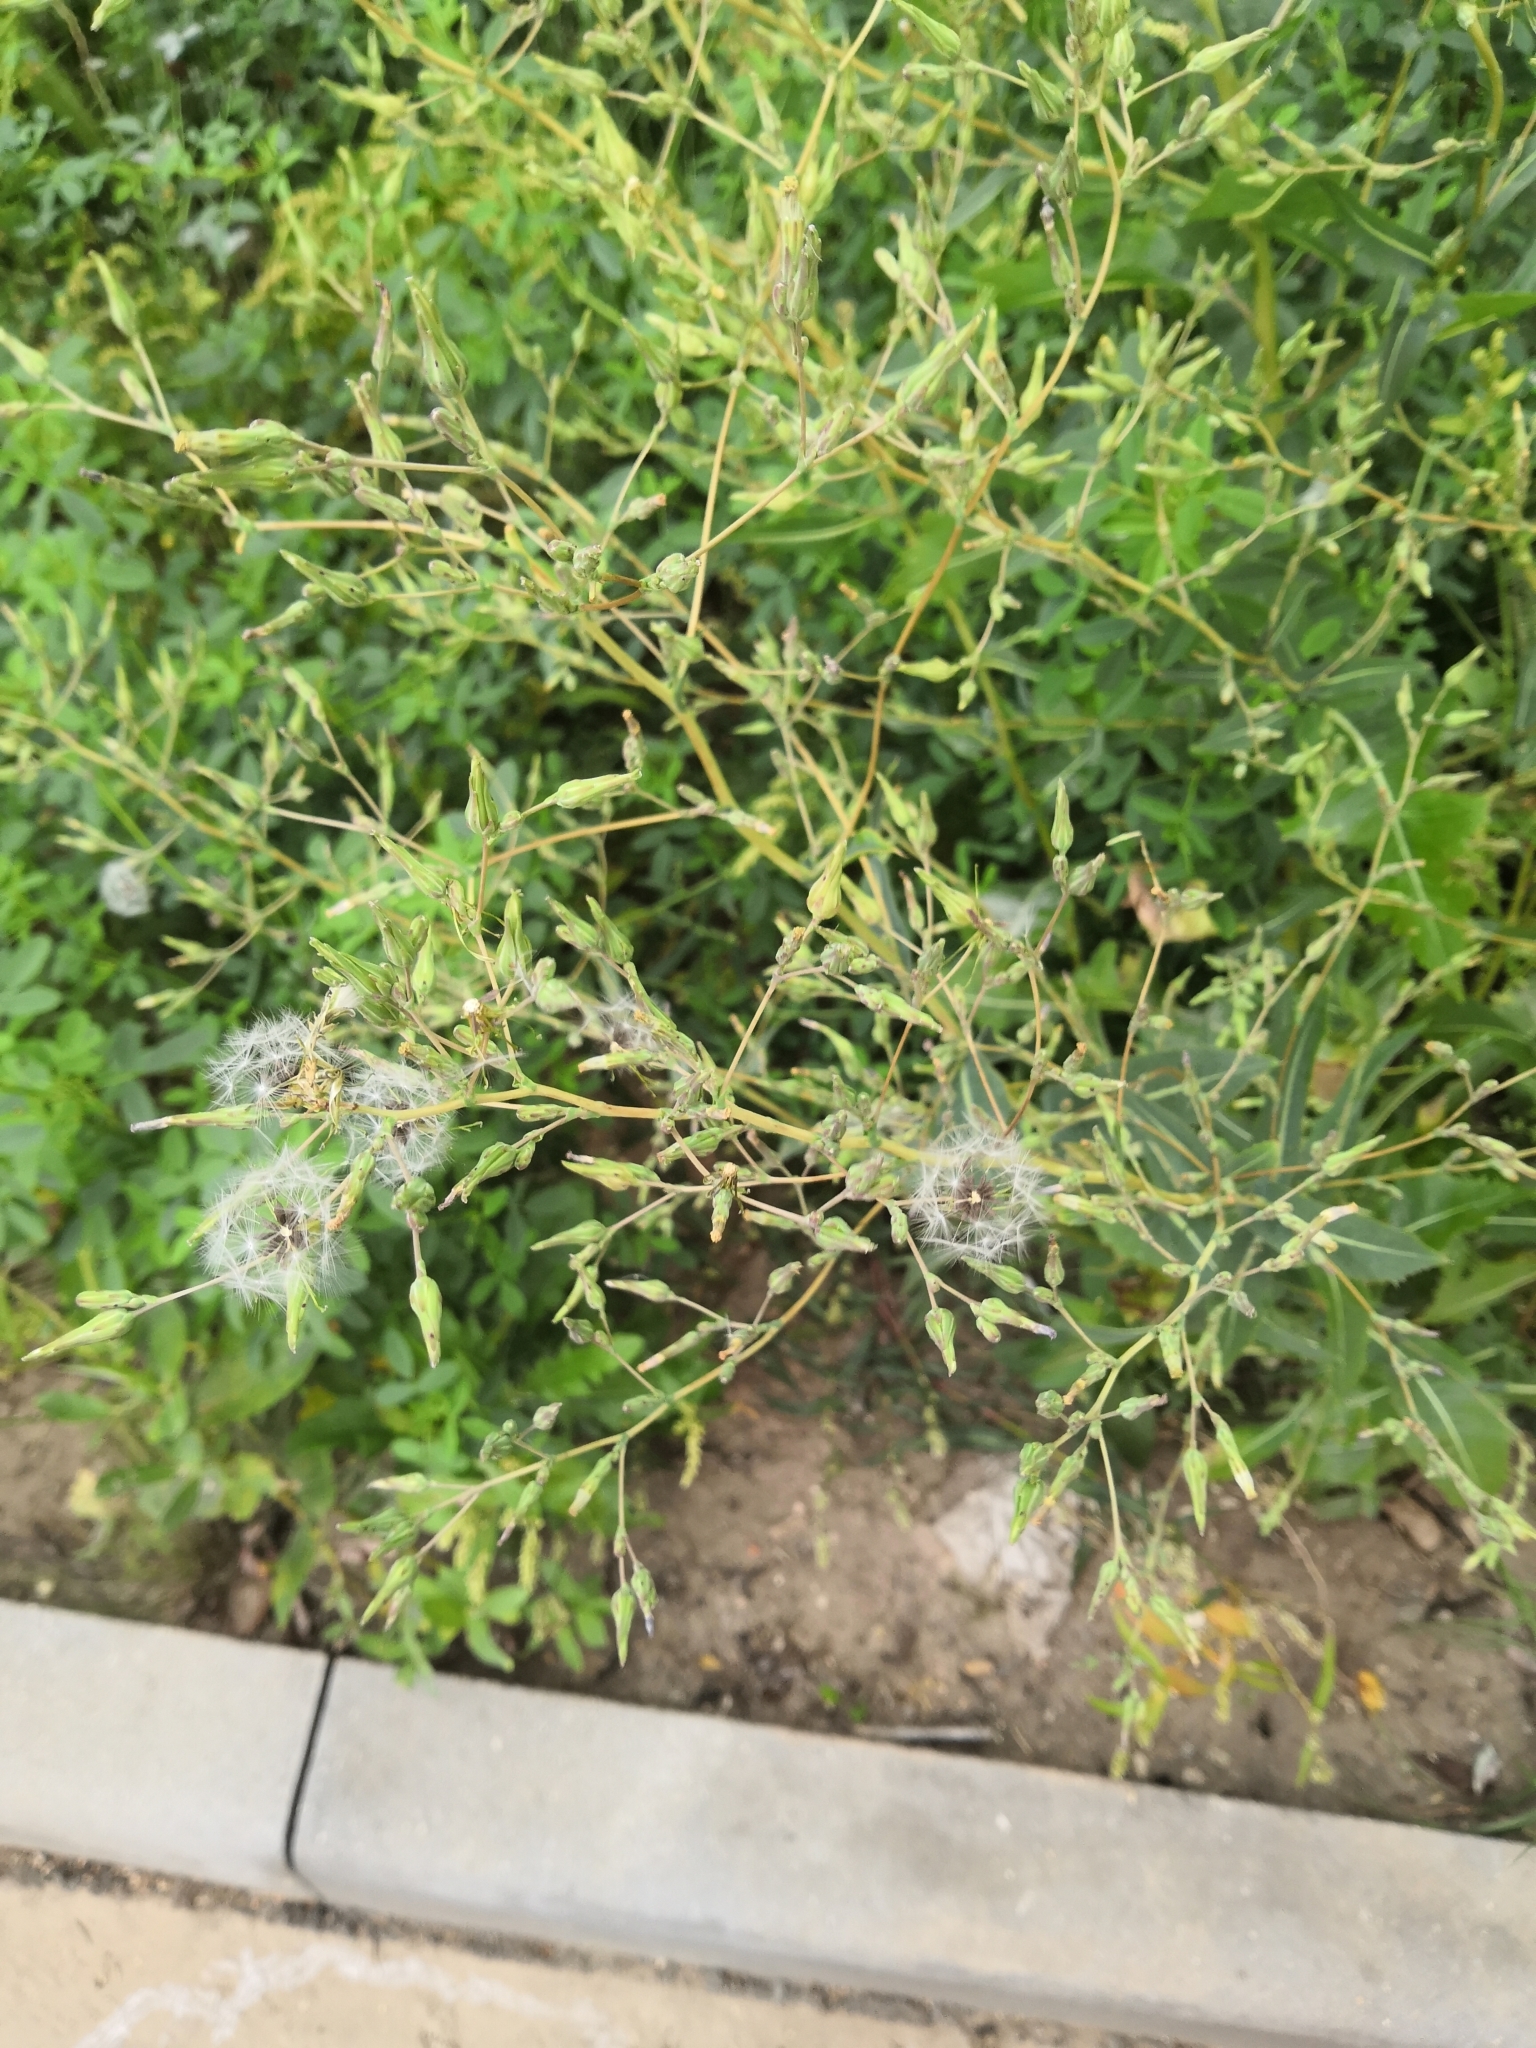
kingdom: Plantae
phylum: Tracheophyta
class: Magnoliopsida
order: Asterales
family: Asteraceae
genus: Lactuca
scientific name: Lactuca serriola
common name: Prickly lettuce
